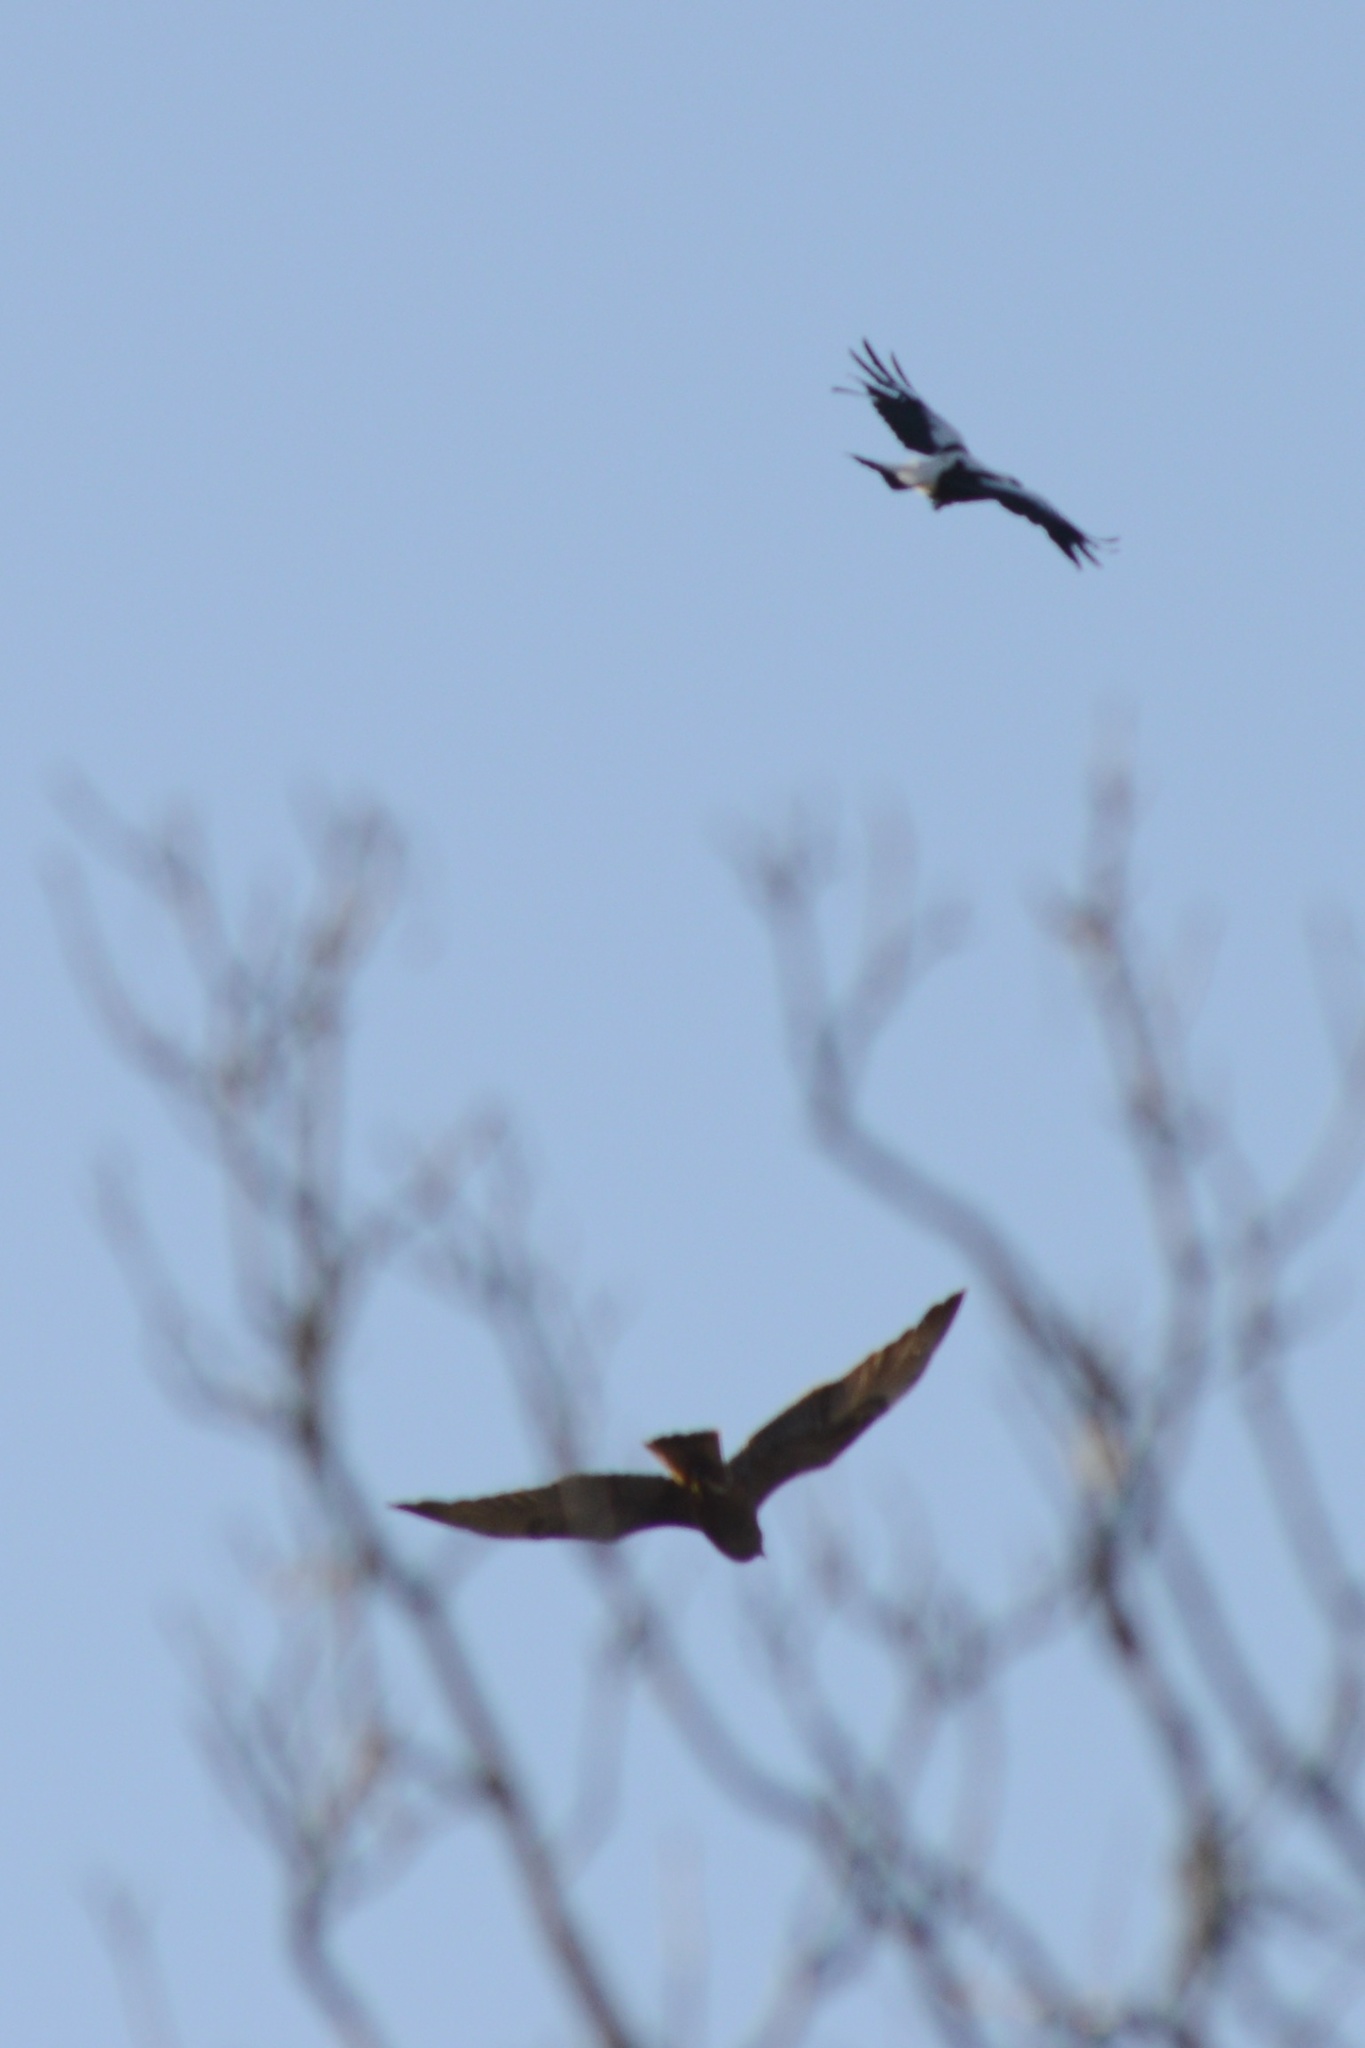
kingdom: Animalia
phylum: Chordata
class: Aves
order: Passeriformes
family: Cracticidae
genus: Gymnorhina
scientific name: Gymnorhina tibicen
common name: Australian magpie
